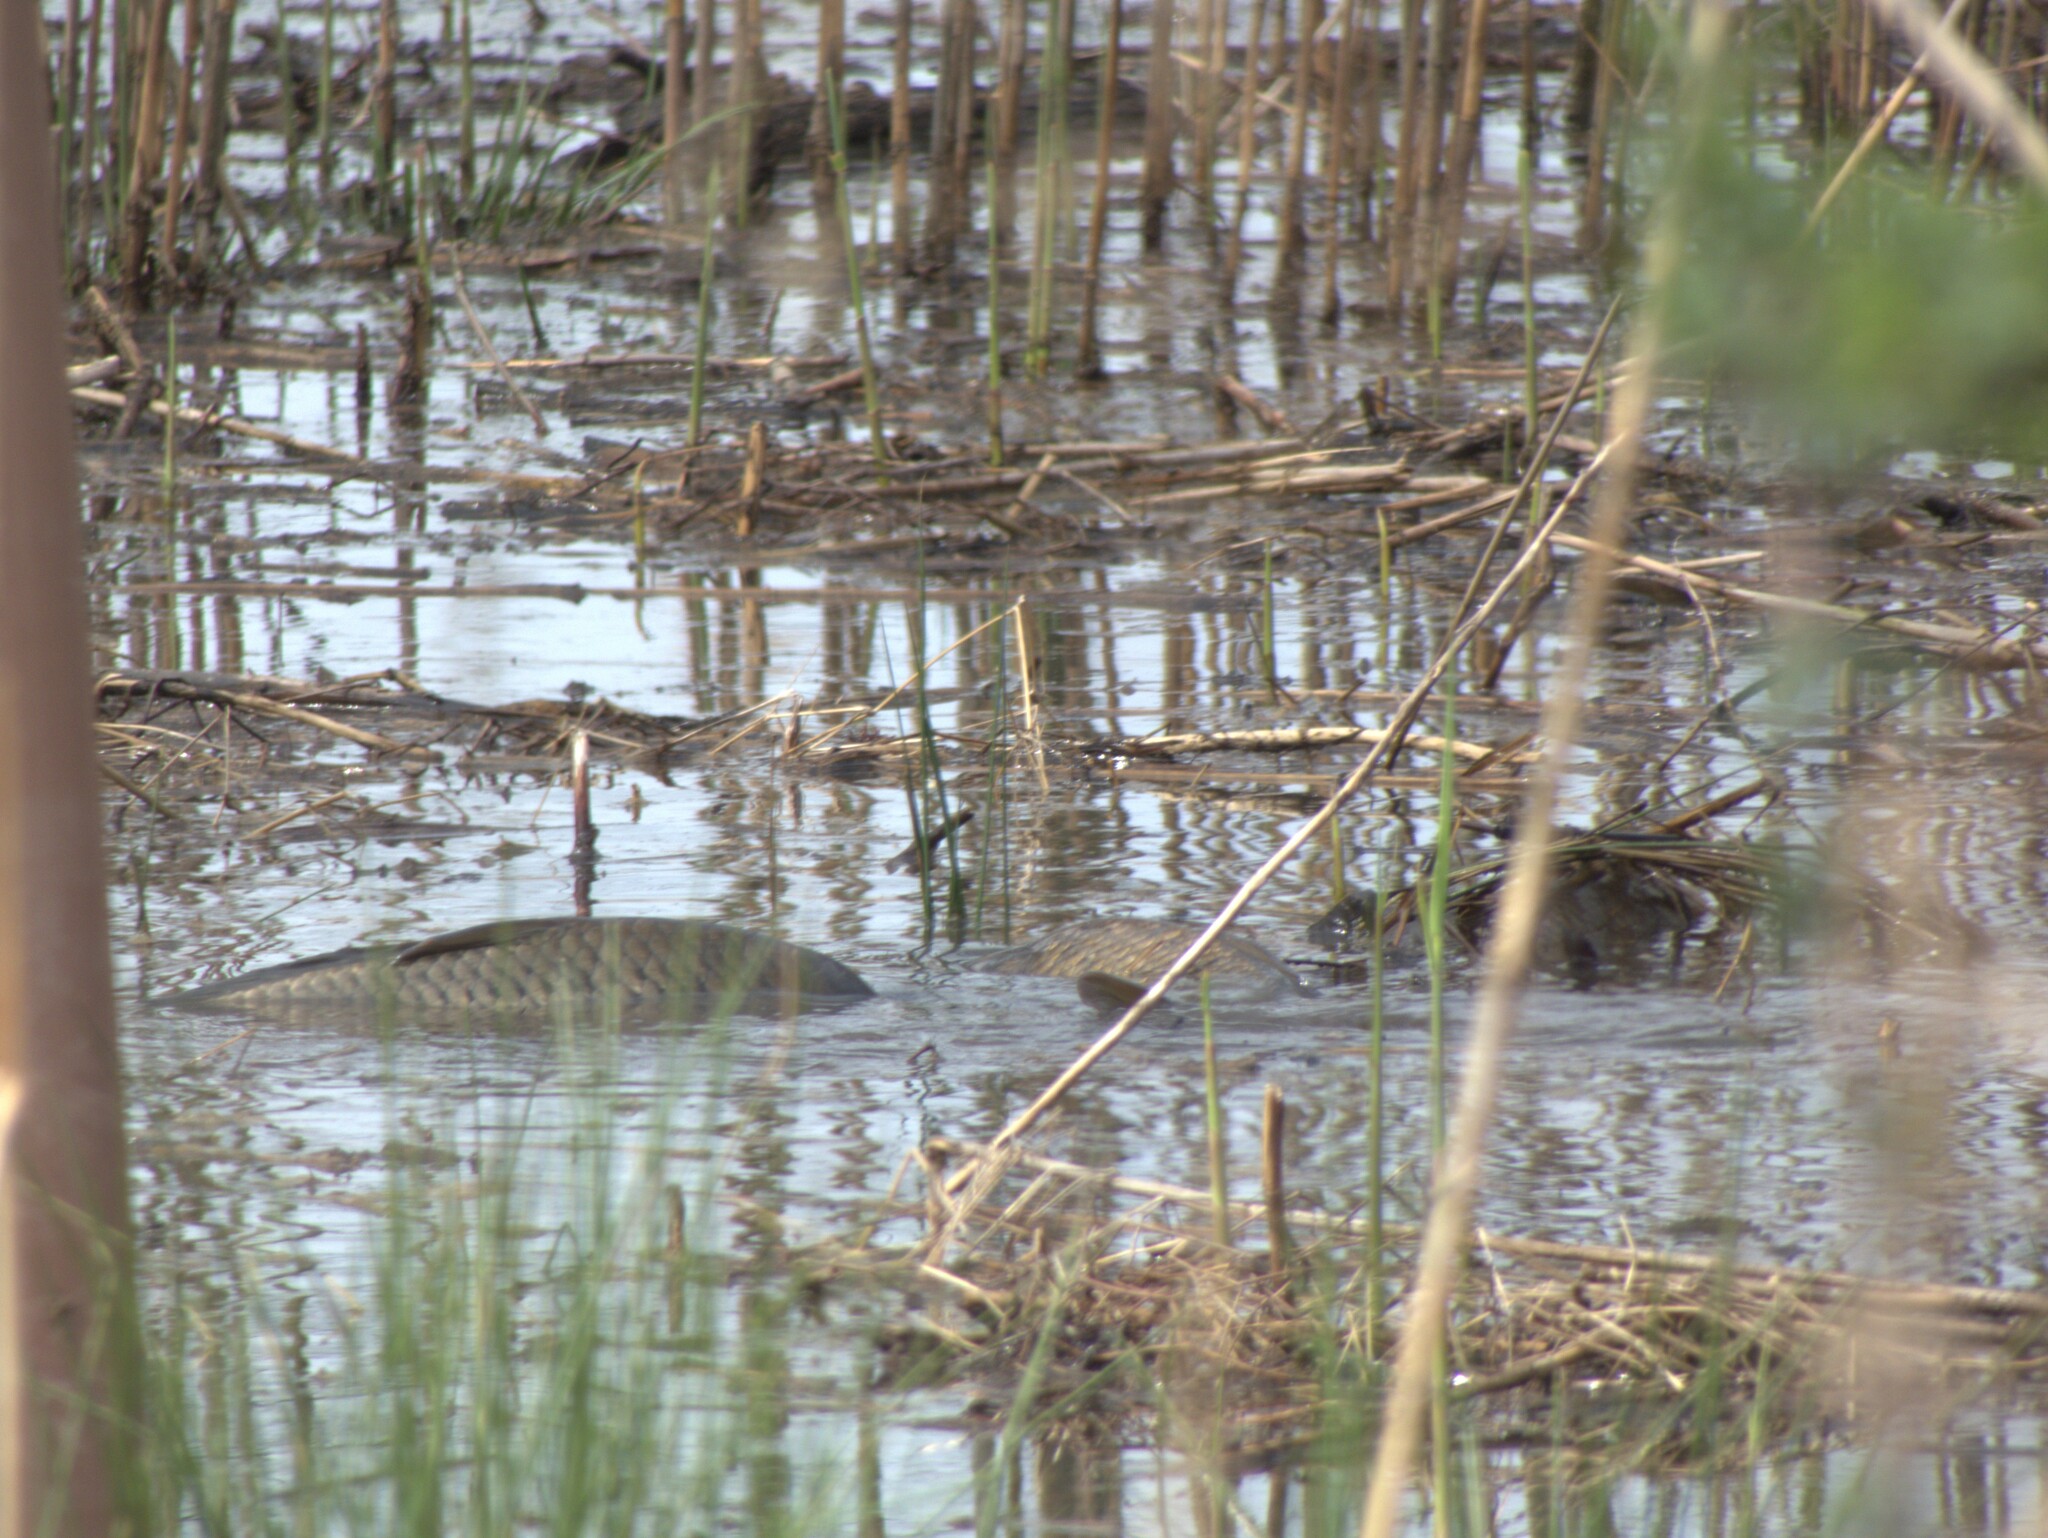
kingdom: Animalia
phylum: Chordata
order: Cypriniformes
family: Cyprinidae
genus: Cyprinus
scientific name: Cyprinus carpio
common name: Common carp
